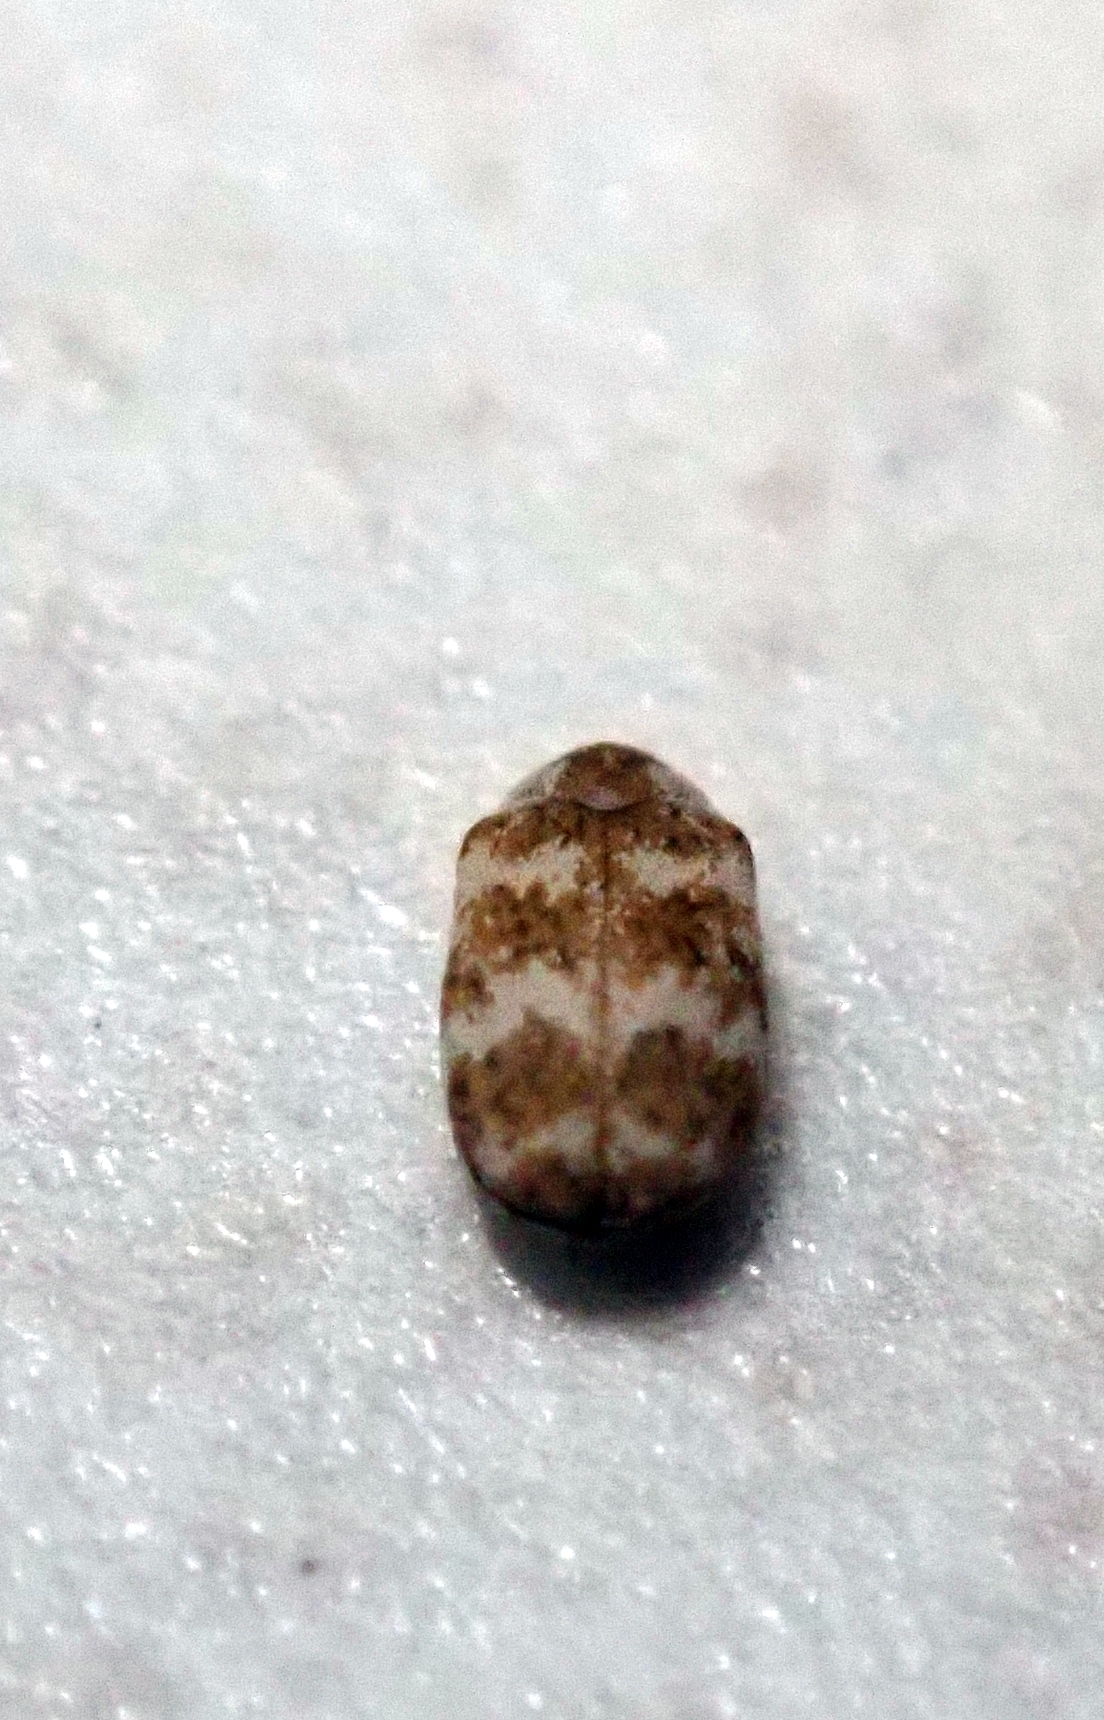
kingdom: Animalia
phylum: Arthropoda
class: Insecta
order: Coleoptera
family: Dermestidae
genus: Anthrenus
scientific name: Anthrenus coloratus
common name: Auger beetle
